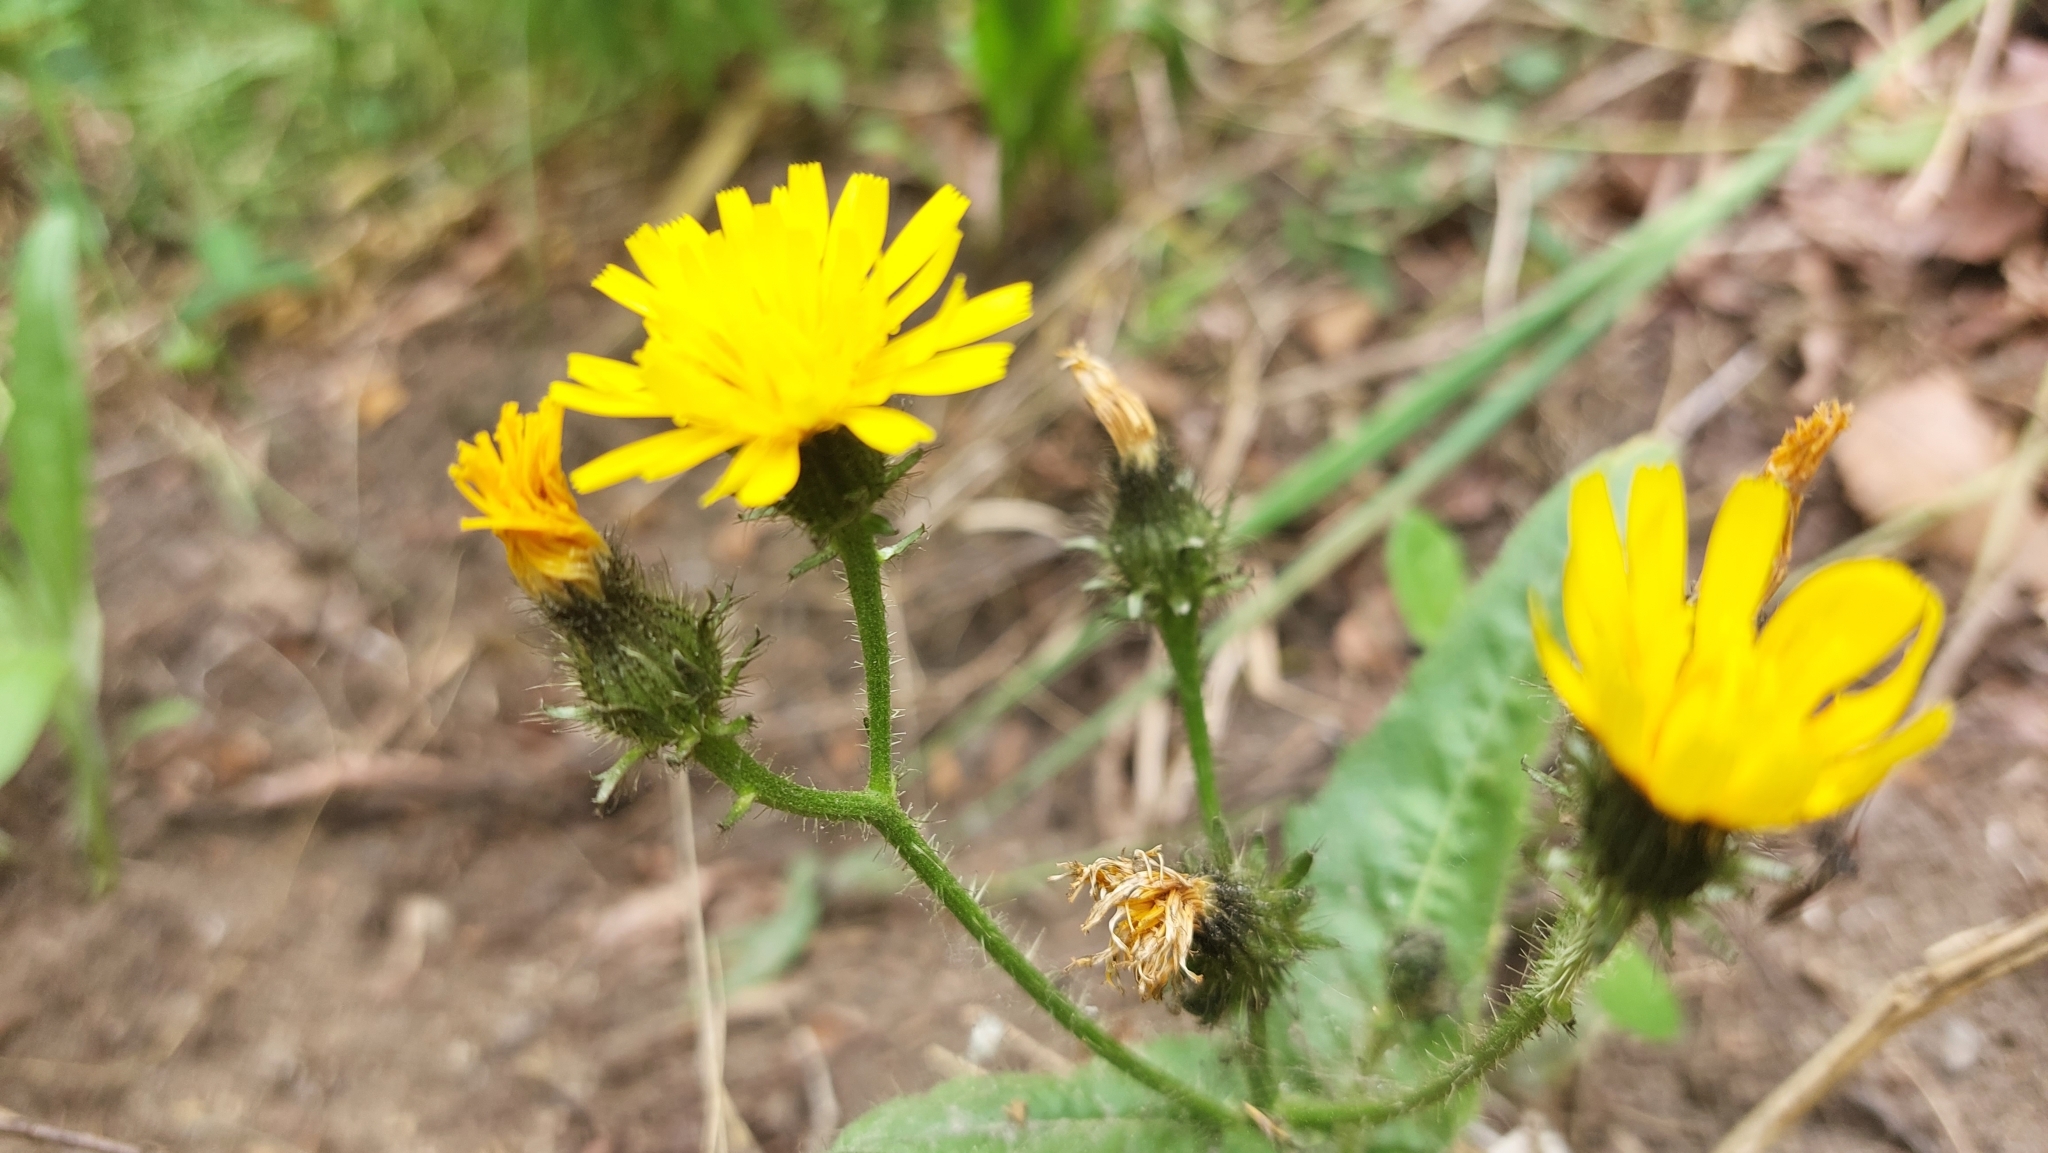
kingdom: Plantae
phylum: Tracheophyta
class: Magnoliopsida
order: Asterales
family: Asteraceae
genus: Picris
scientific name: Picris japonica
